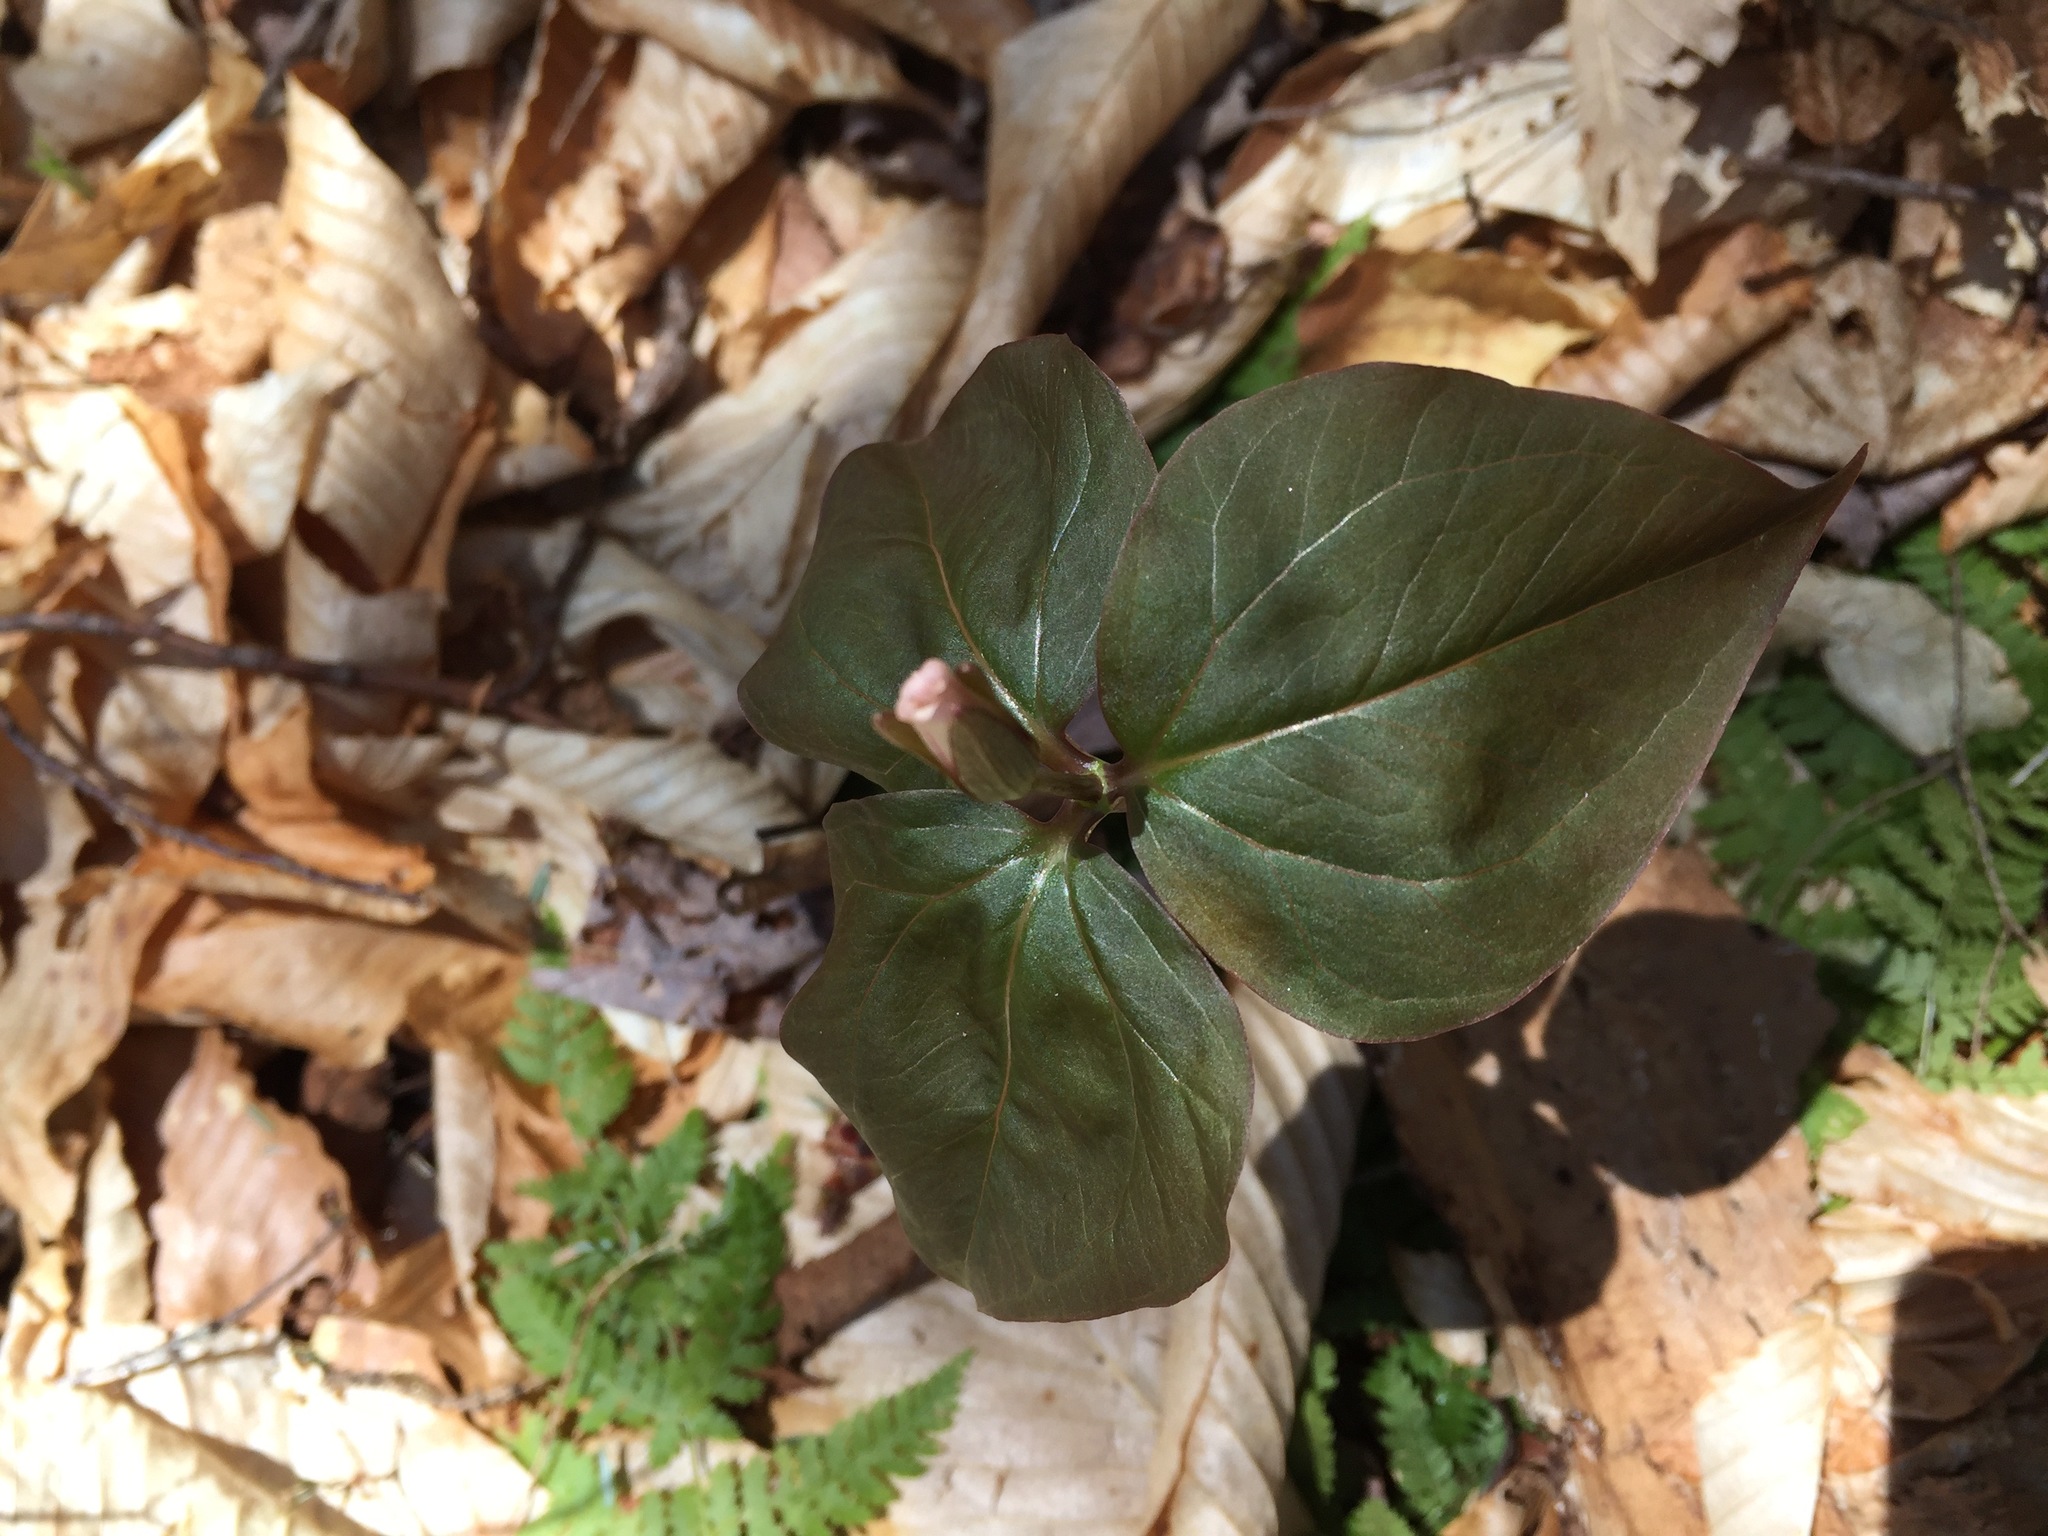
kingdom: Plantae
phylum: Tracheophyta
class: Liliopsida
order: Liliales
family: Melanthiaceae
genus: Trillium
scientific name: Trillium undulatum
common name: Paint trillium
